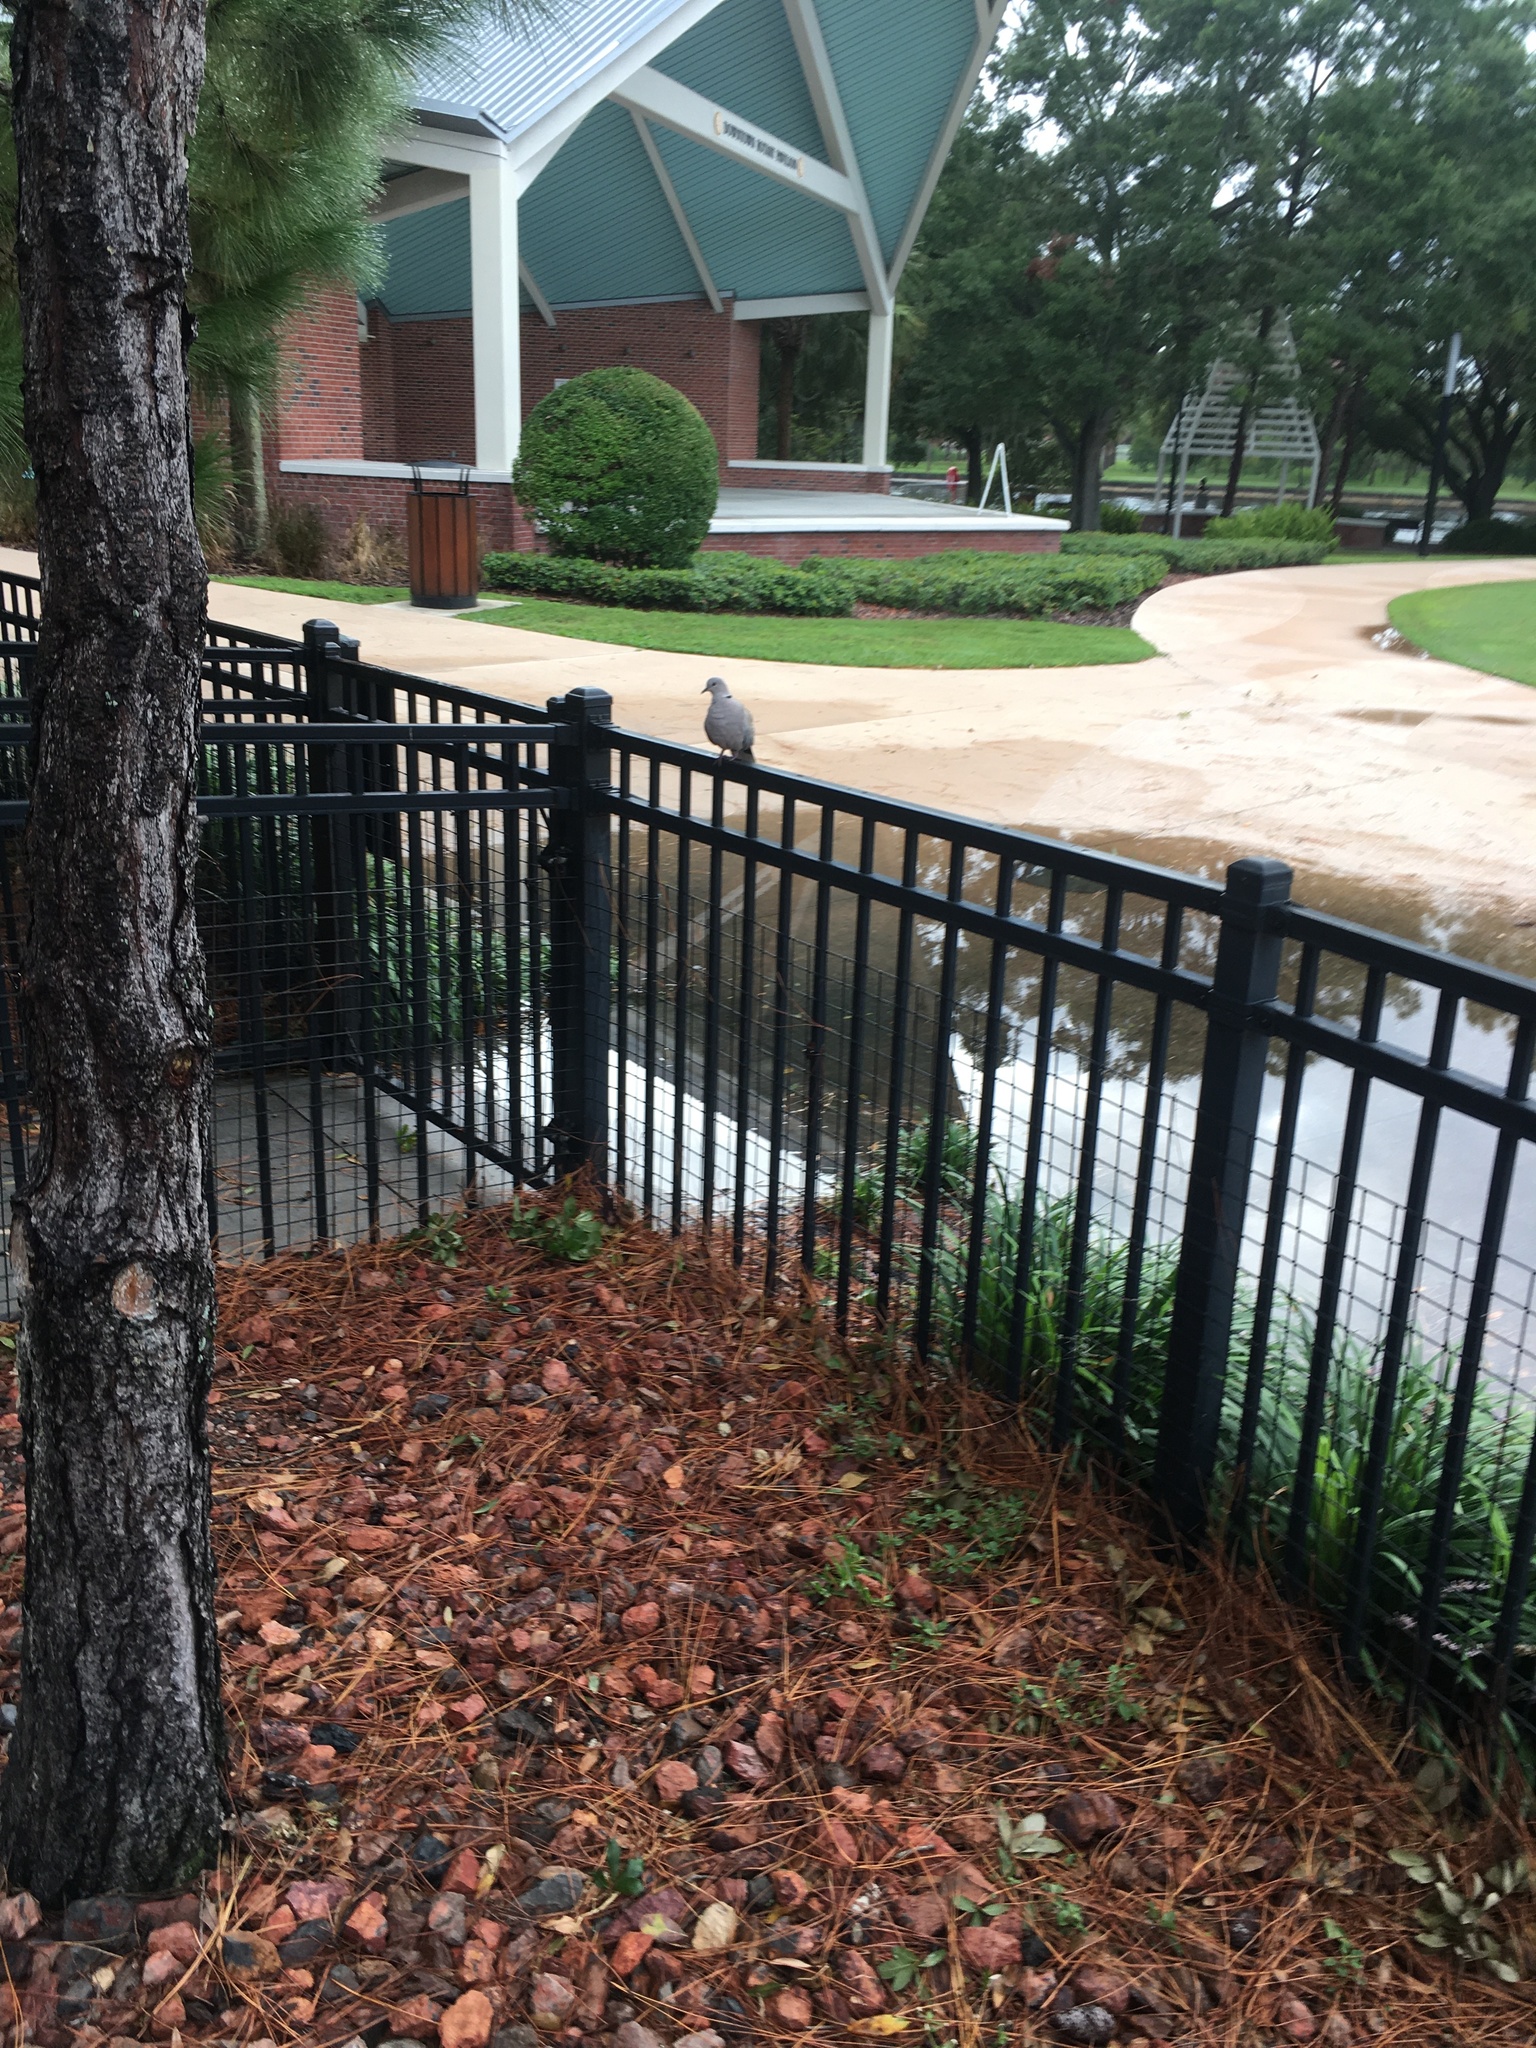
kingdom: Animalia
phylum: Chordata
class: Aves
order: Columbiformes
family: Columbidae
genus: Streptopelia
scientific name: Streptopelia decaocto
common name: Eurasian collared dove
